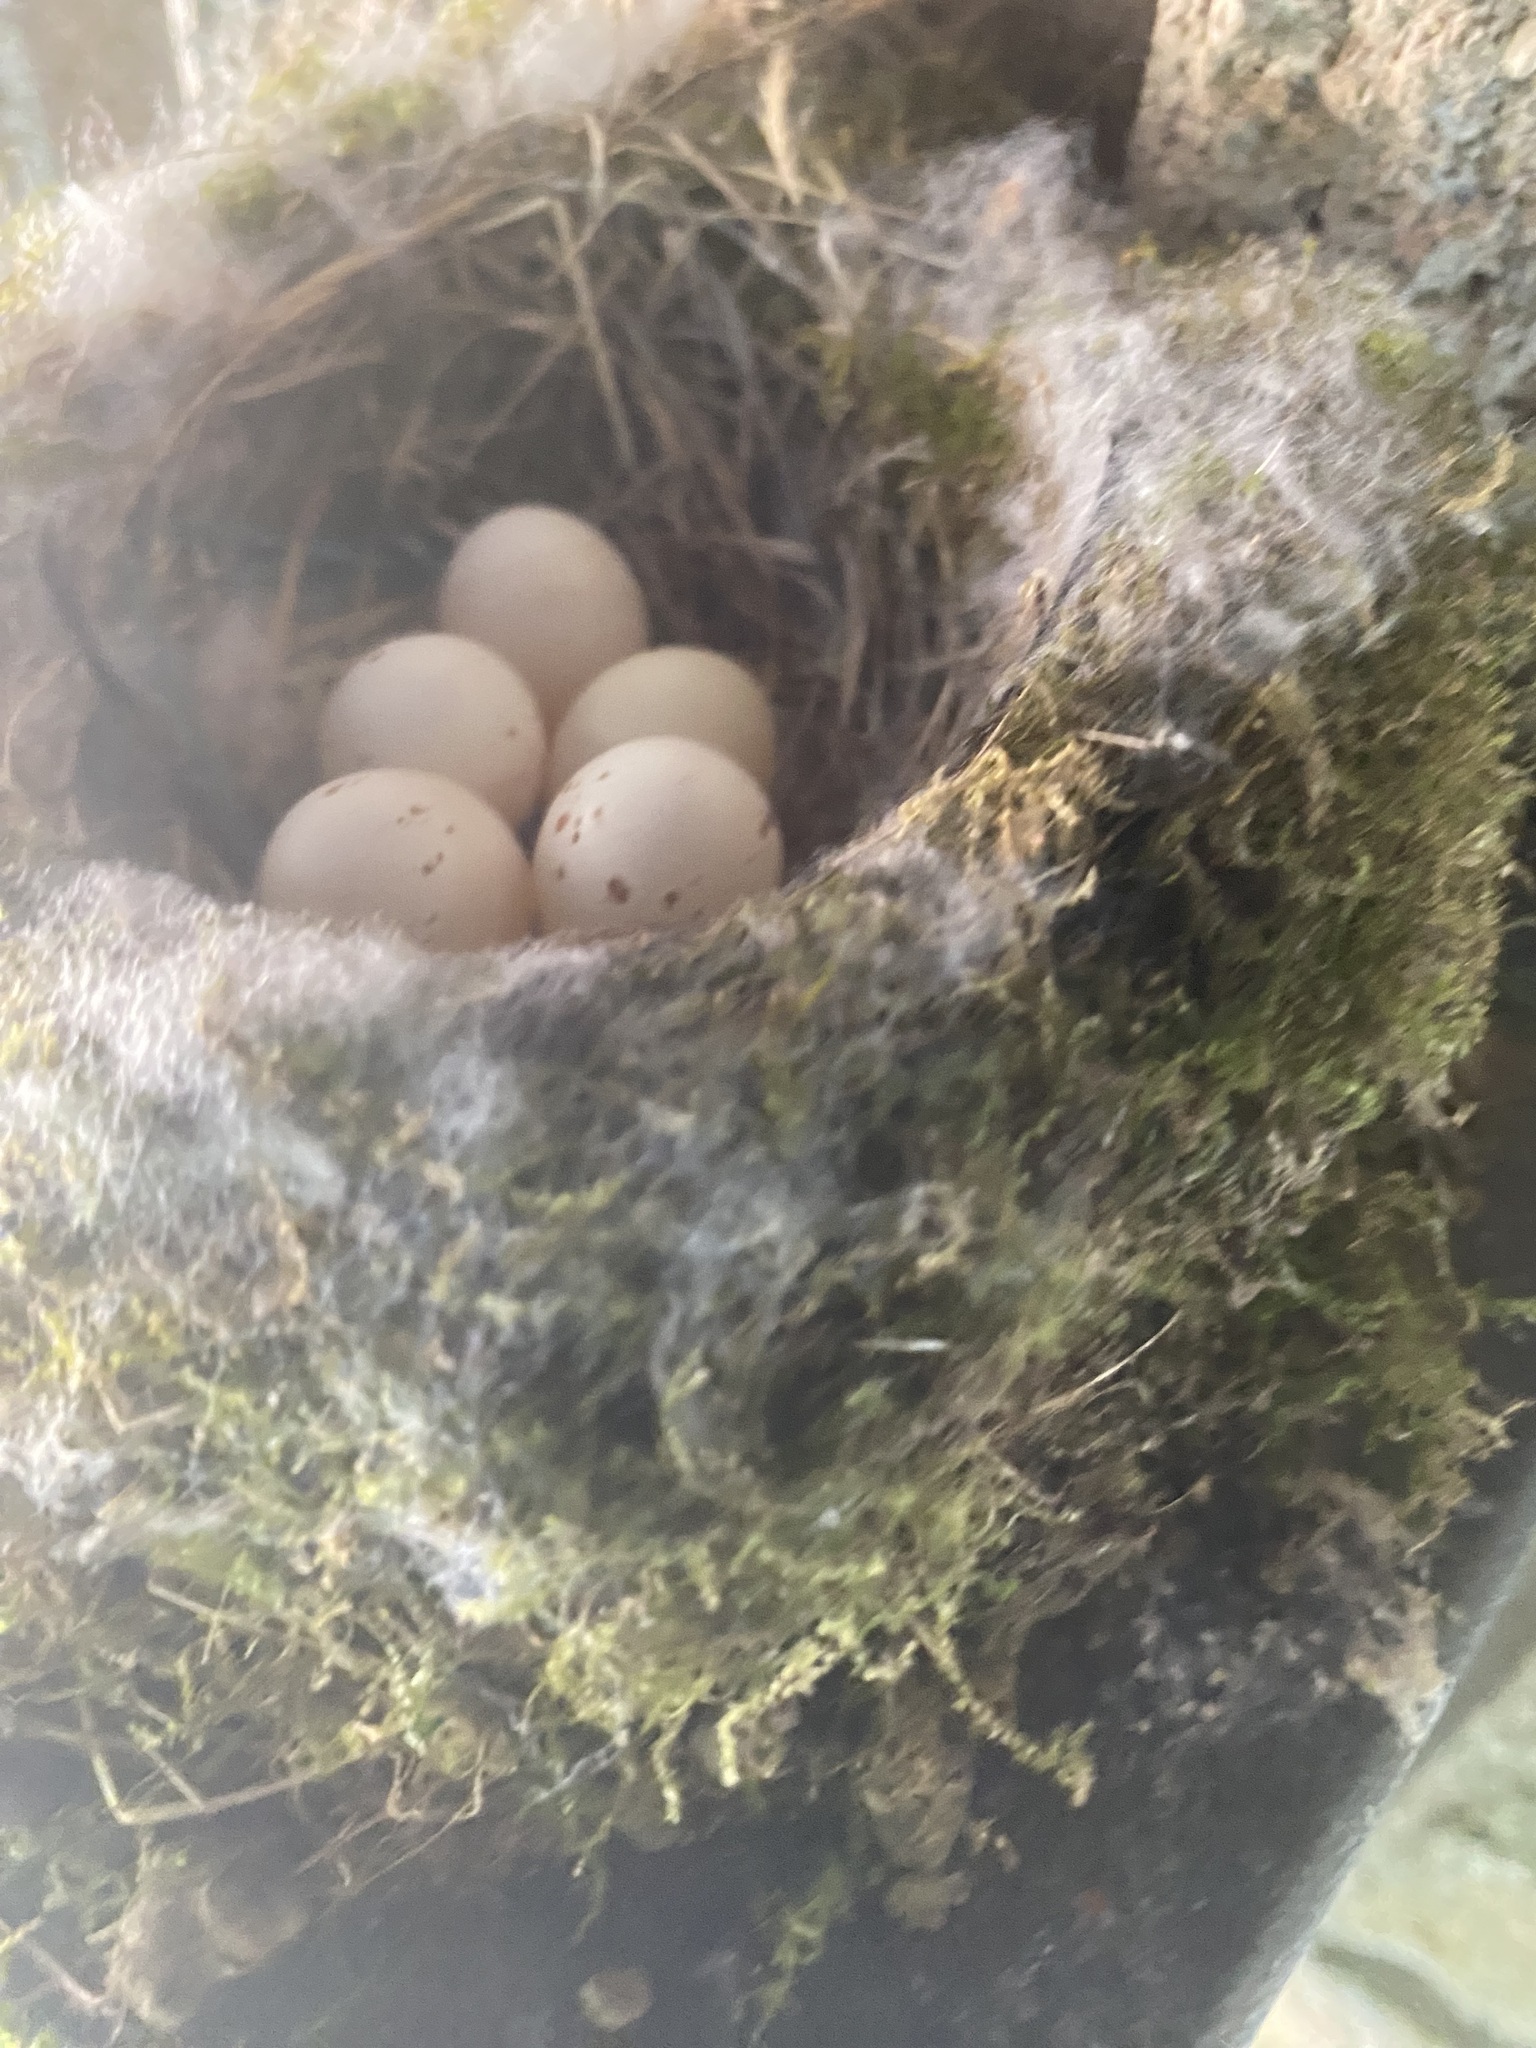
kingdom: Animalia
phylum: Chordata
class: Aves
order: Passeriformes
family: Tyrannidae
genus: Sayornis
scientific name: Sayornis phoebe
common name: Eastern phoebe
